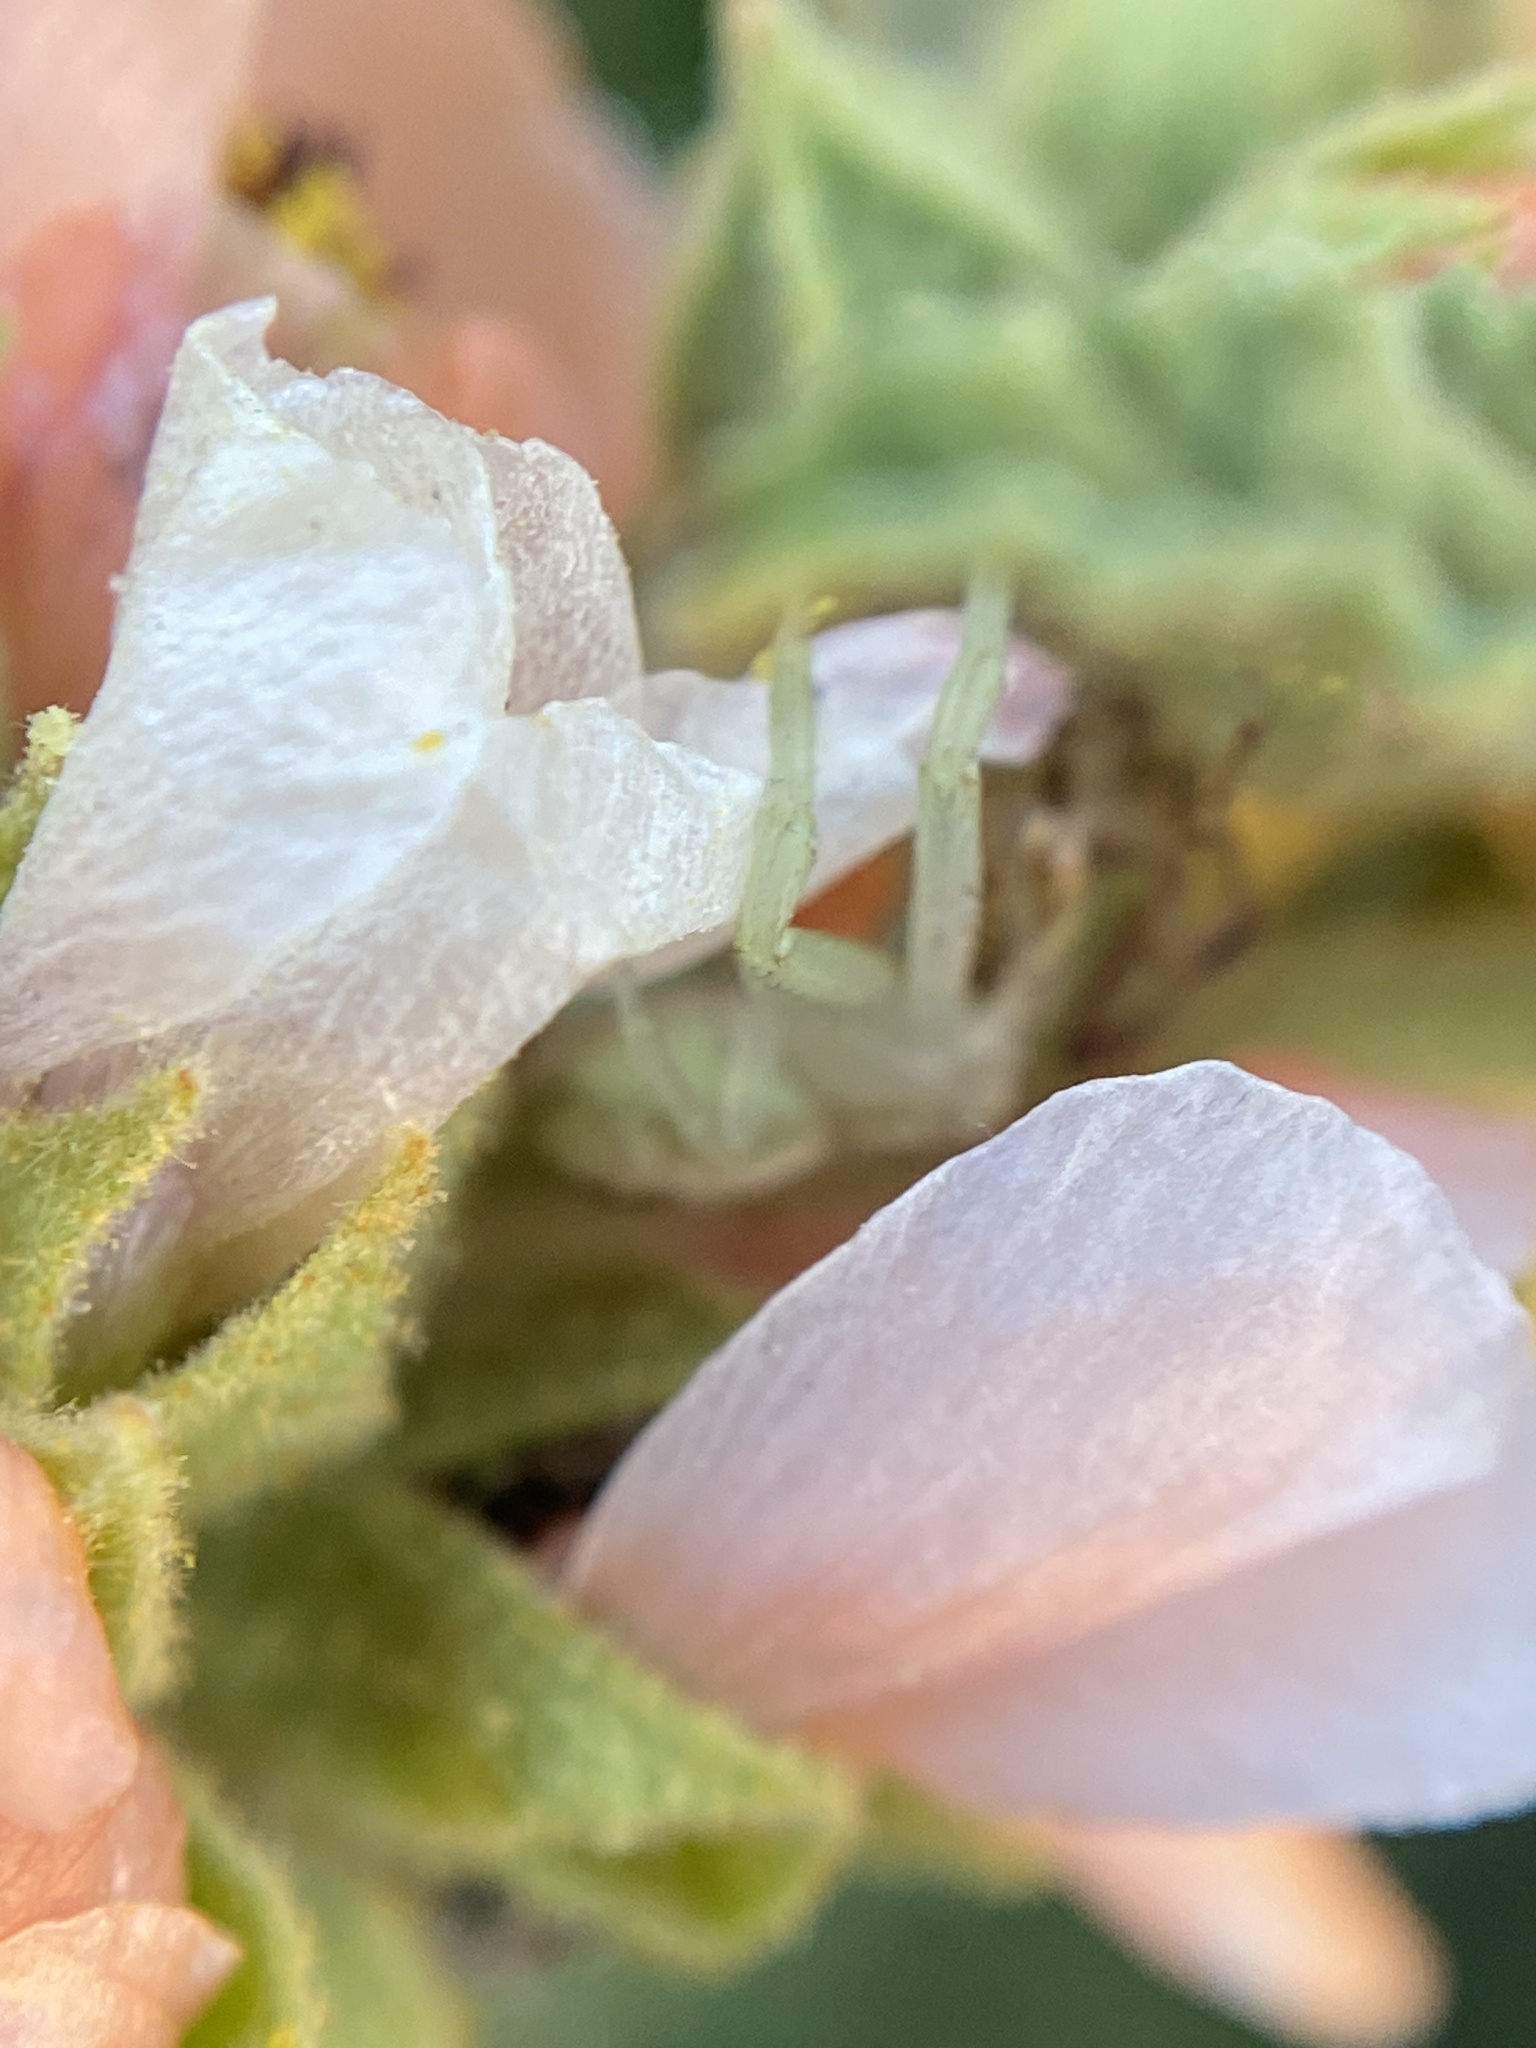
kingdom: Animalia
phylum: Arthropoda
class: Arachnida
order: Araneae
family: Thomisidae
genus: Misumenops
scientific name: Misumenops
